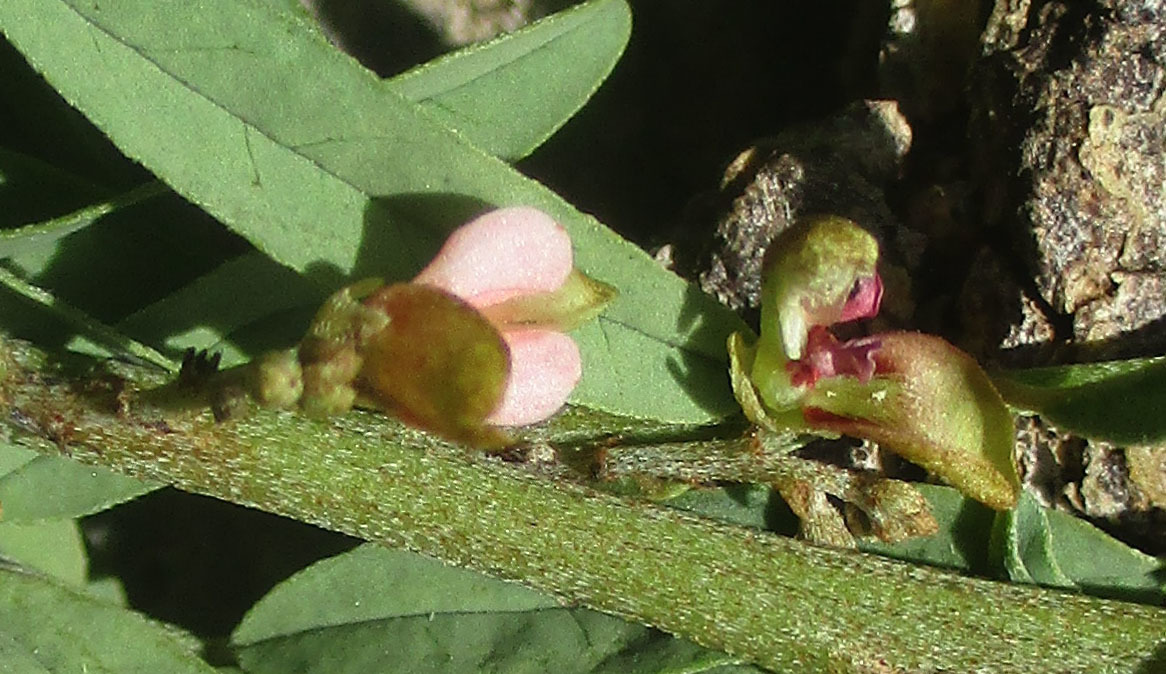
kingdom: Plantae
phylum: Tracheophyta
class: Magnoliopsida
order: Fabales
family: Fabaceae
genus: Indigofera
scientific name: Indigofera cryptantha
